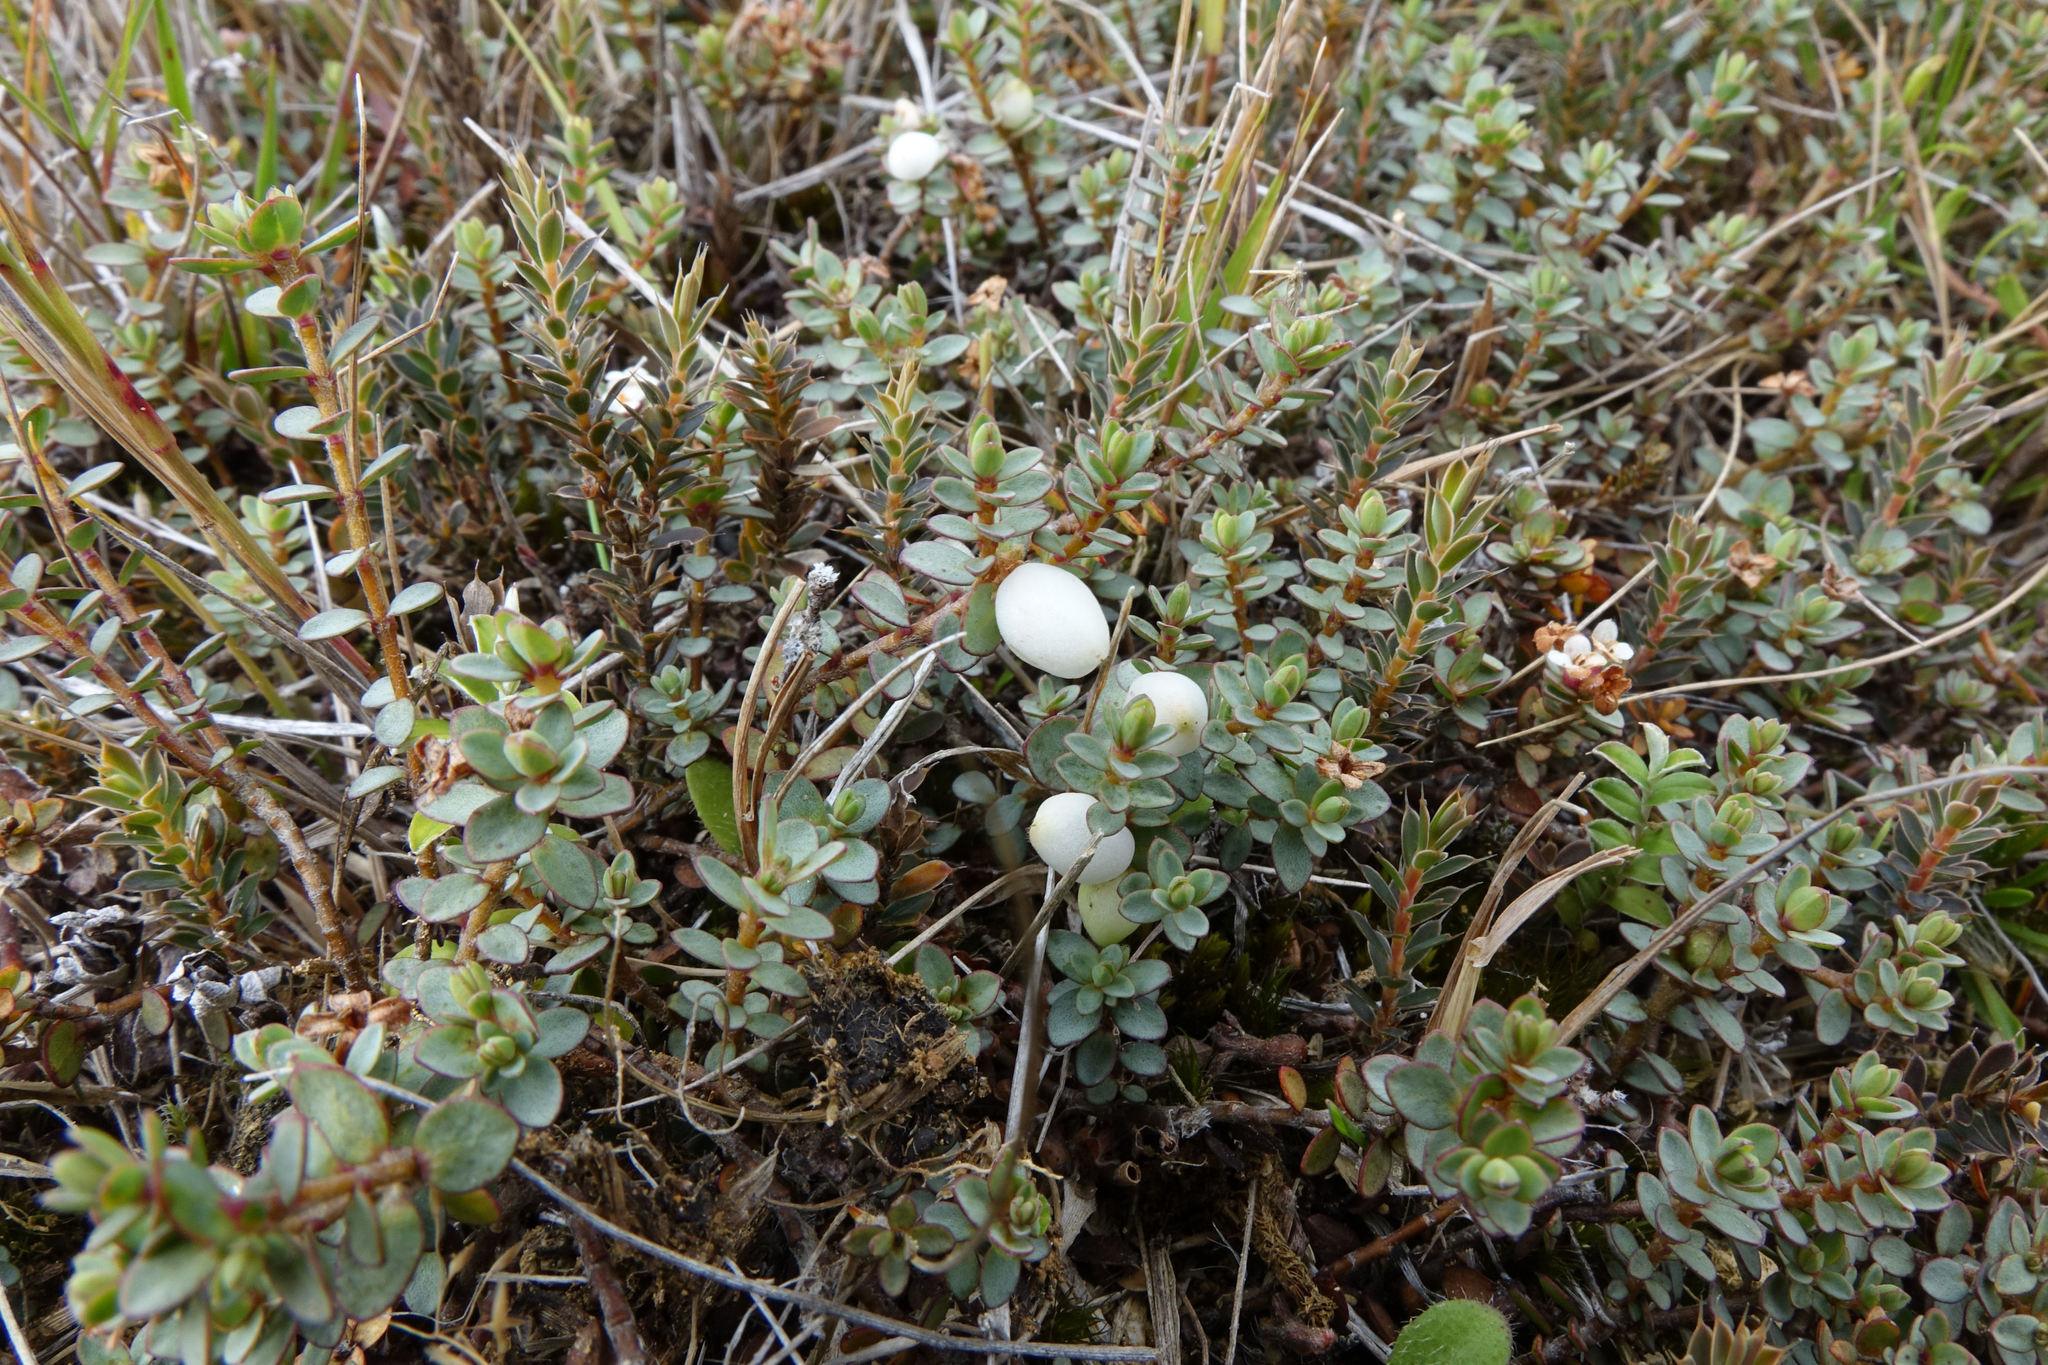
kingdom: Plantae
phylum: Tracheophyta
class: Magnoliopsida
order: Malvales
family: Thymelaeaceae
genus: Pimelea
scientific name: Pimelea prostrata
